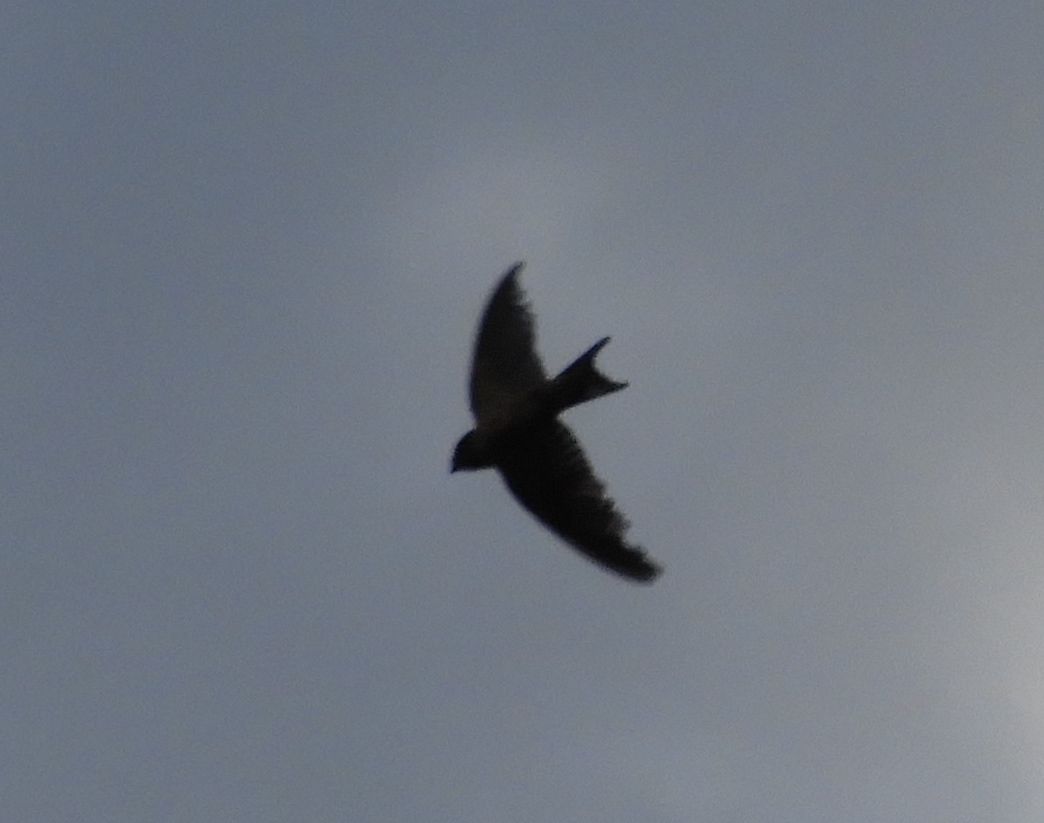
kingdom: Animalia
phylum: Chordata
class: Aves
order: Passeriformes
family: Hirundinidae
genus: Hirundo
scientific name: Hirundo rustica
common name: Barn swallow
